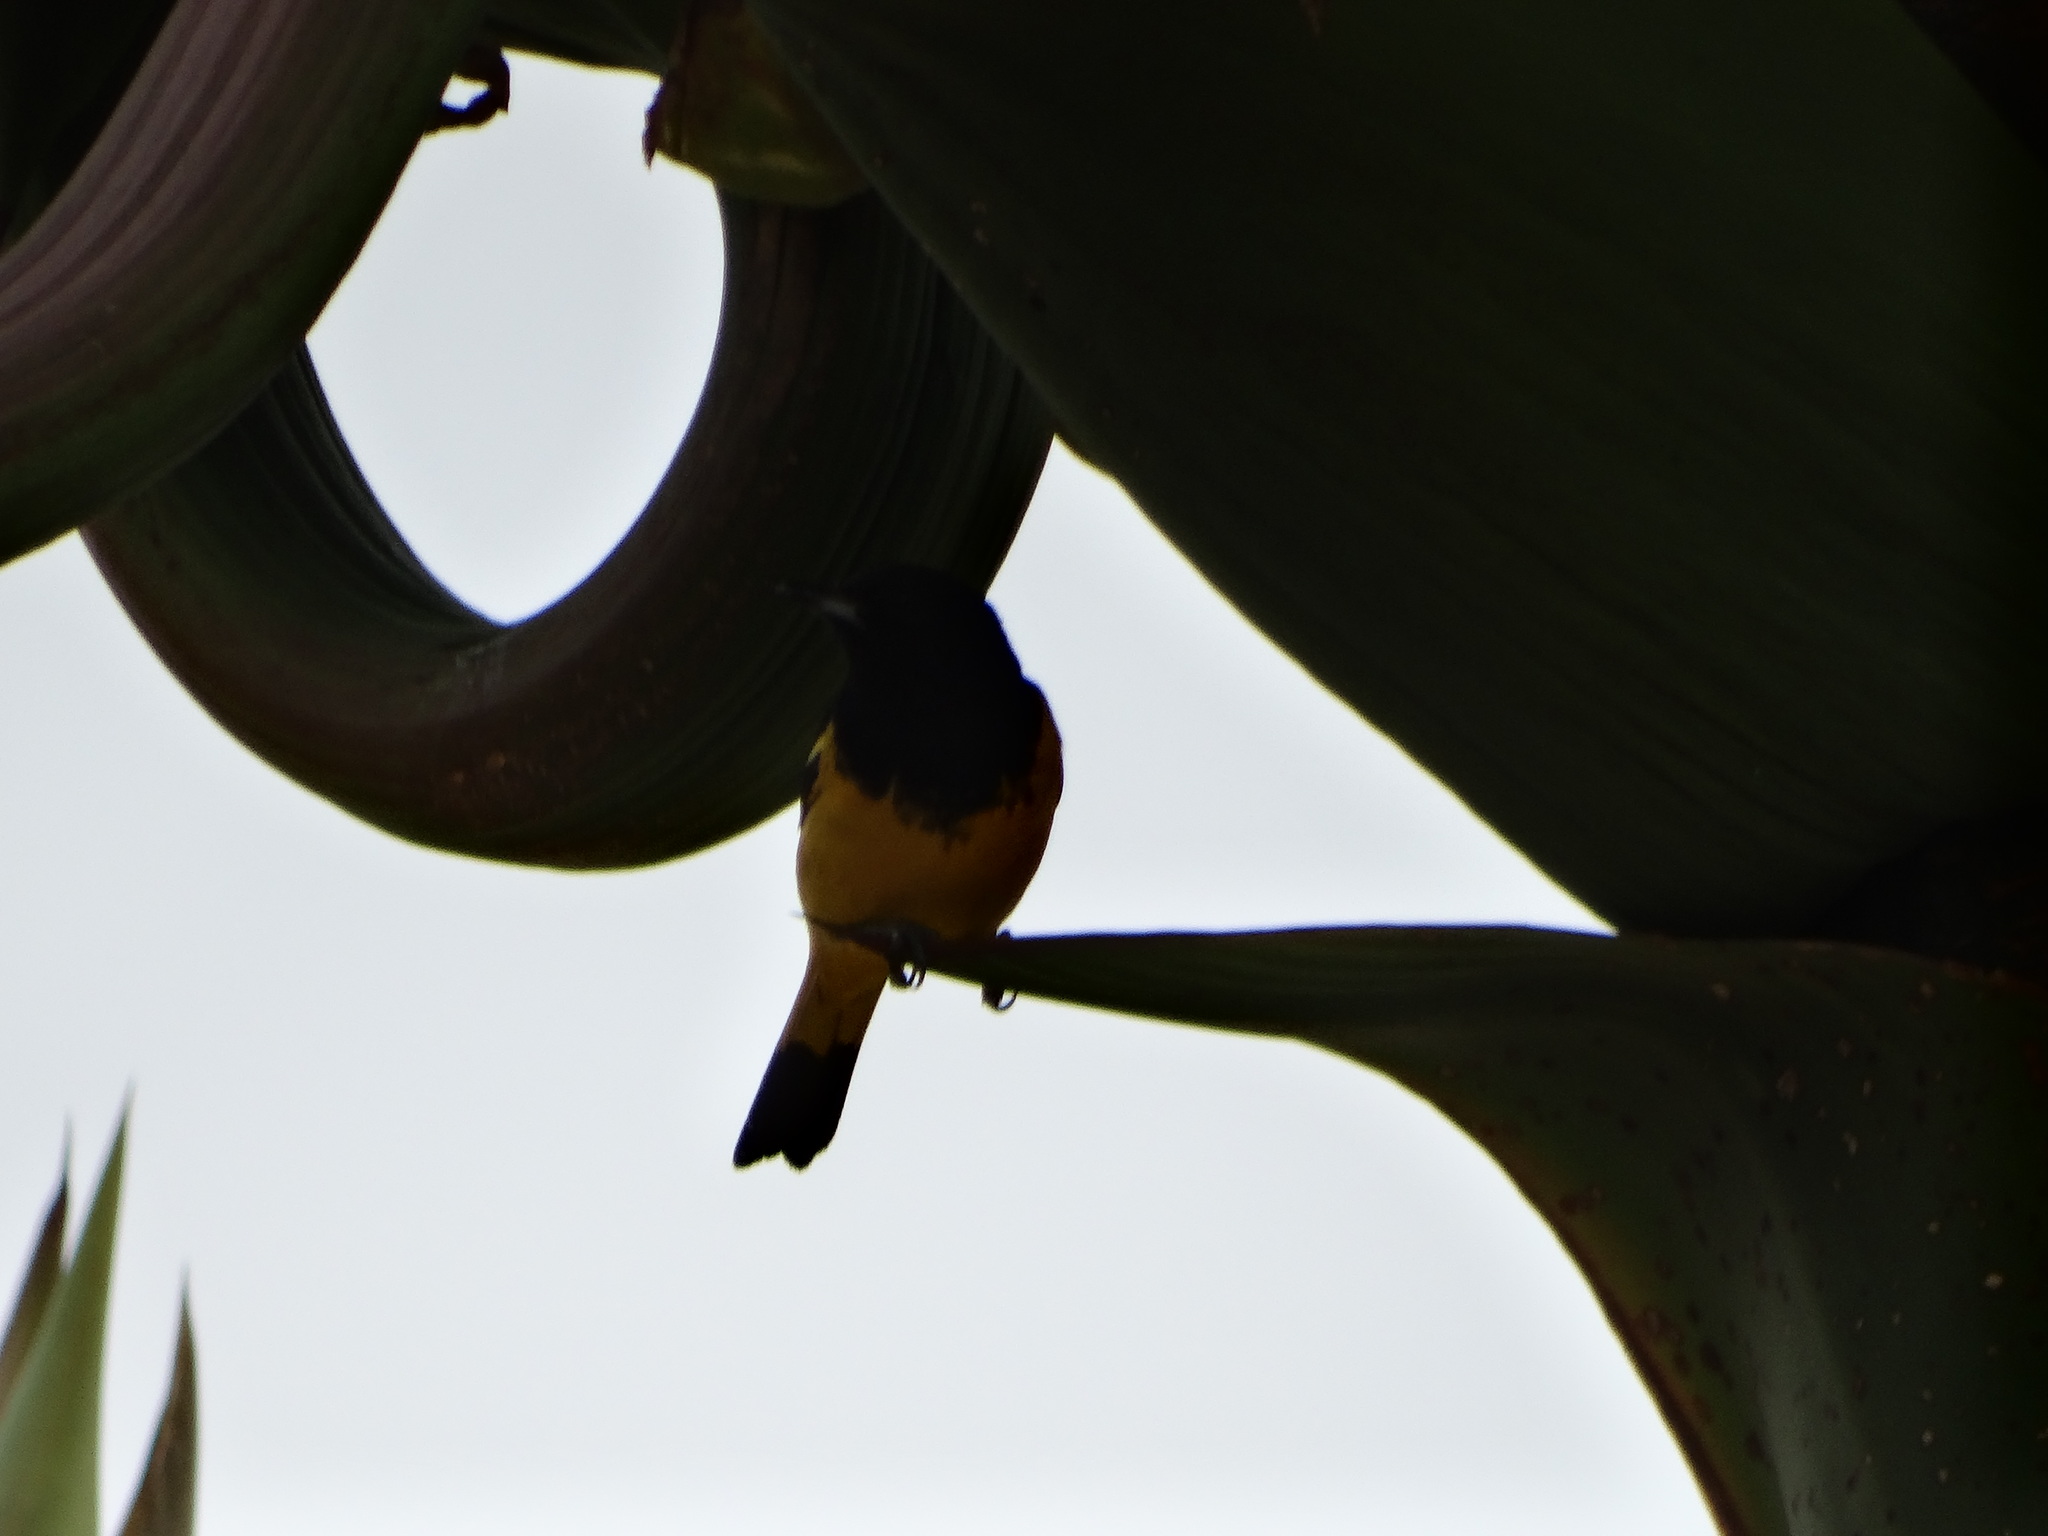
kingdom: Animalia
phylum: Chordata
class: Aves
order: Passeriformes
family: Icteridae
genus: Icterus
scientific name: Icterus parisorum
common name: Scott's oriole
